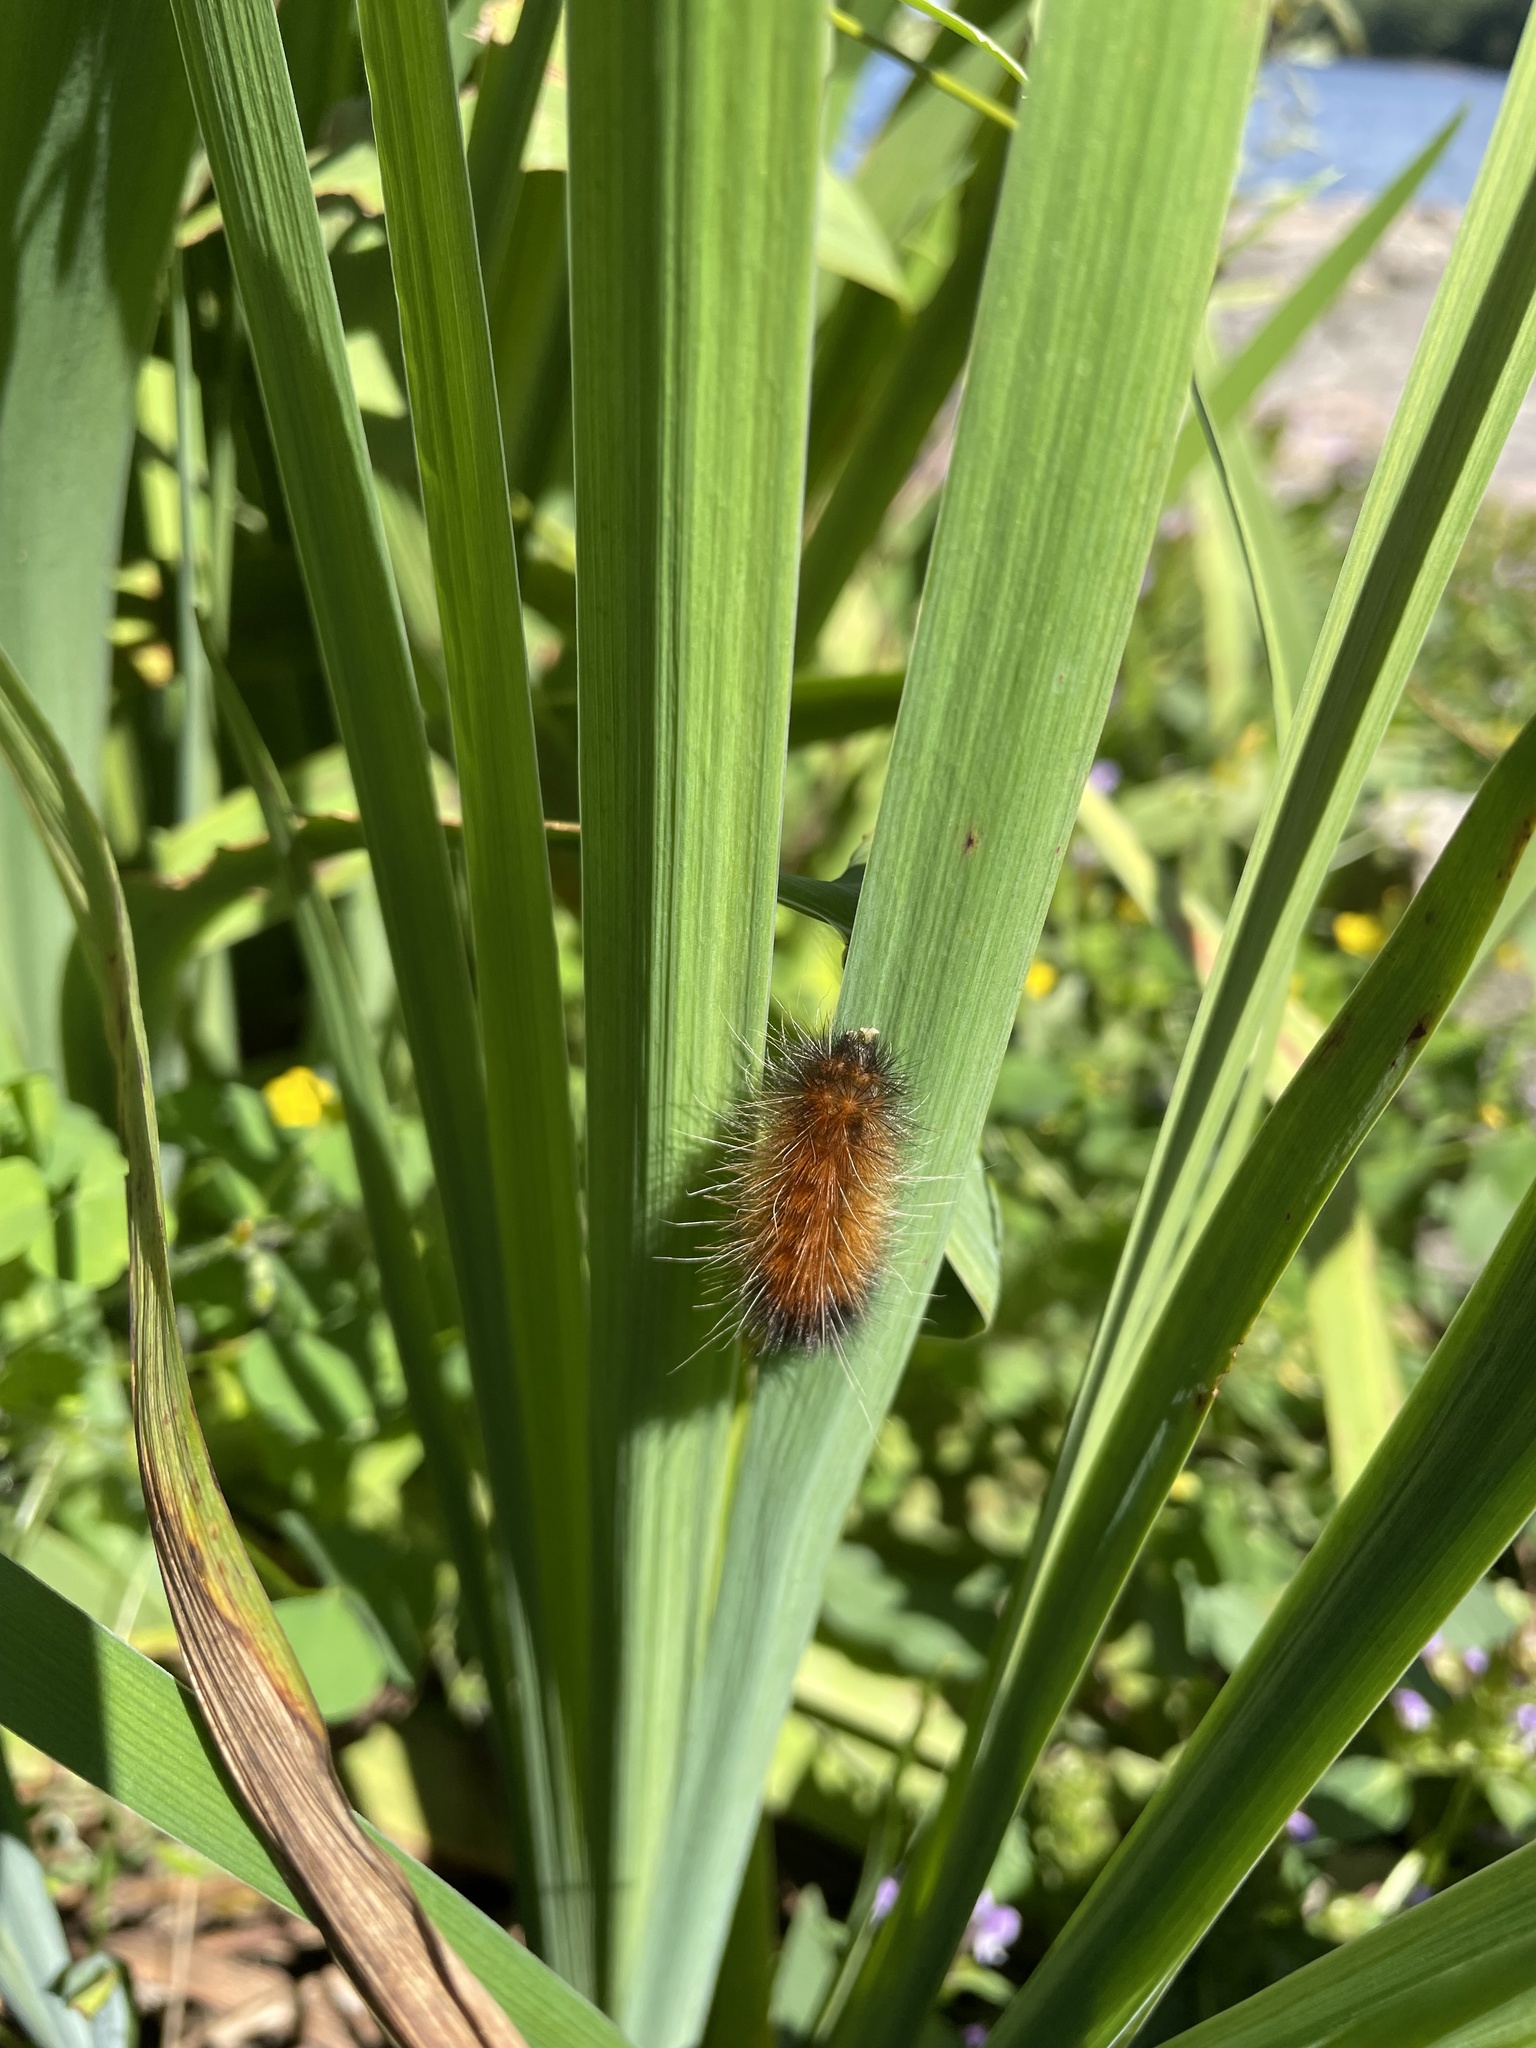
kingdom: Animalia
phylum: Arthropoda
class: Insecta
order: Lepidoptera
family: Erebidae
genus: Spilosoma
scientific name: Spilosoma virginica
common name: Virginia tiger moth
